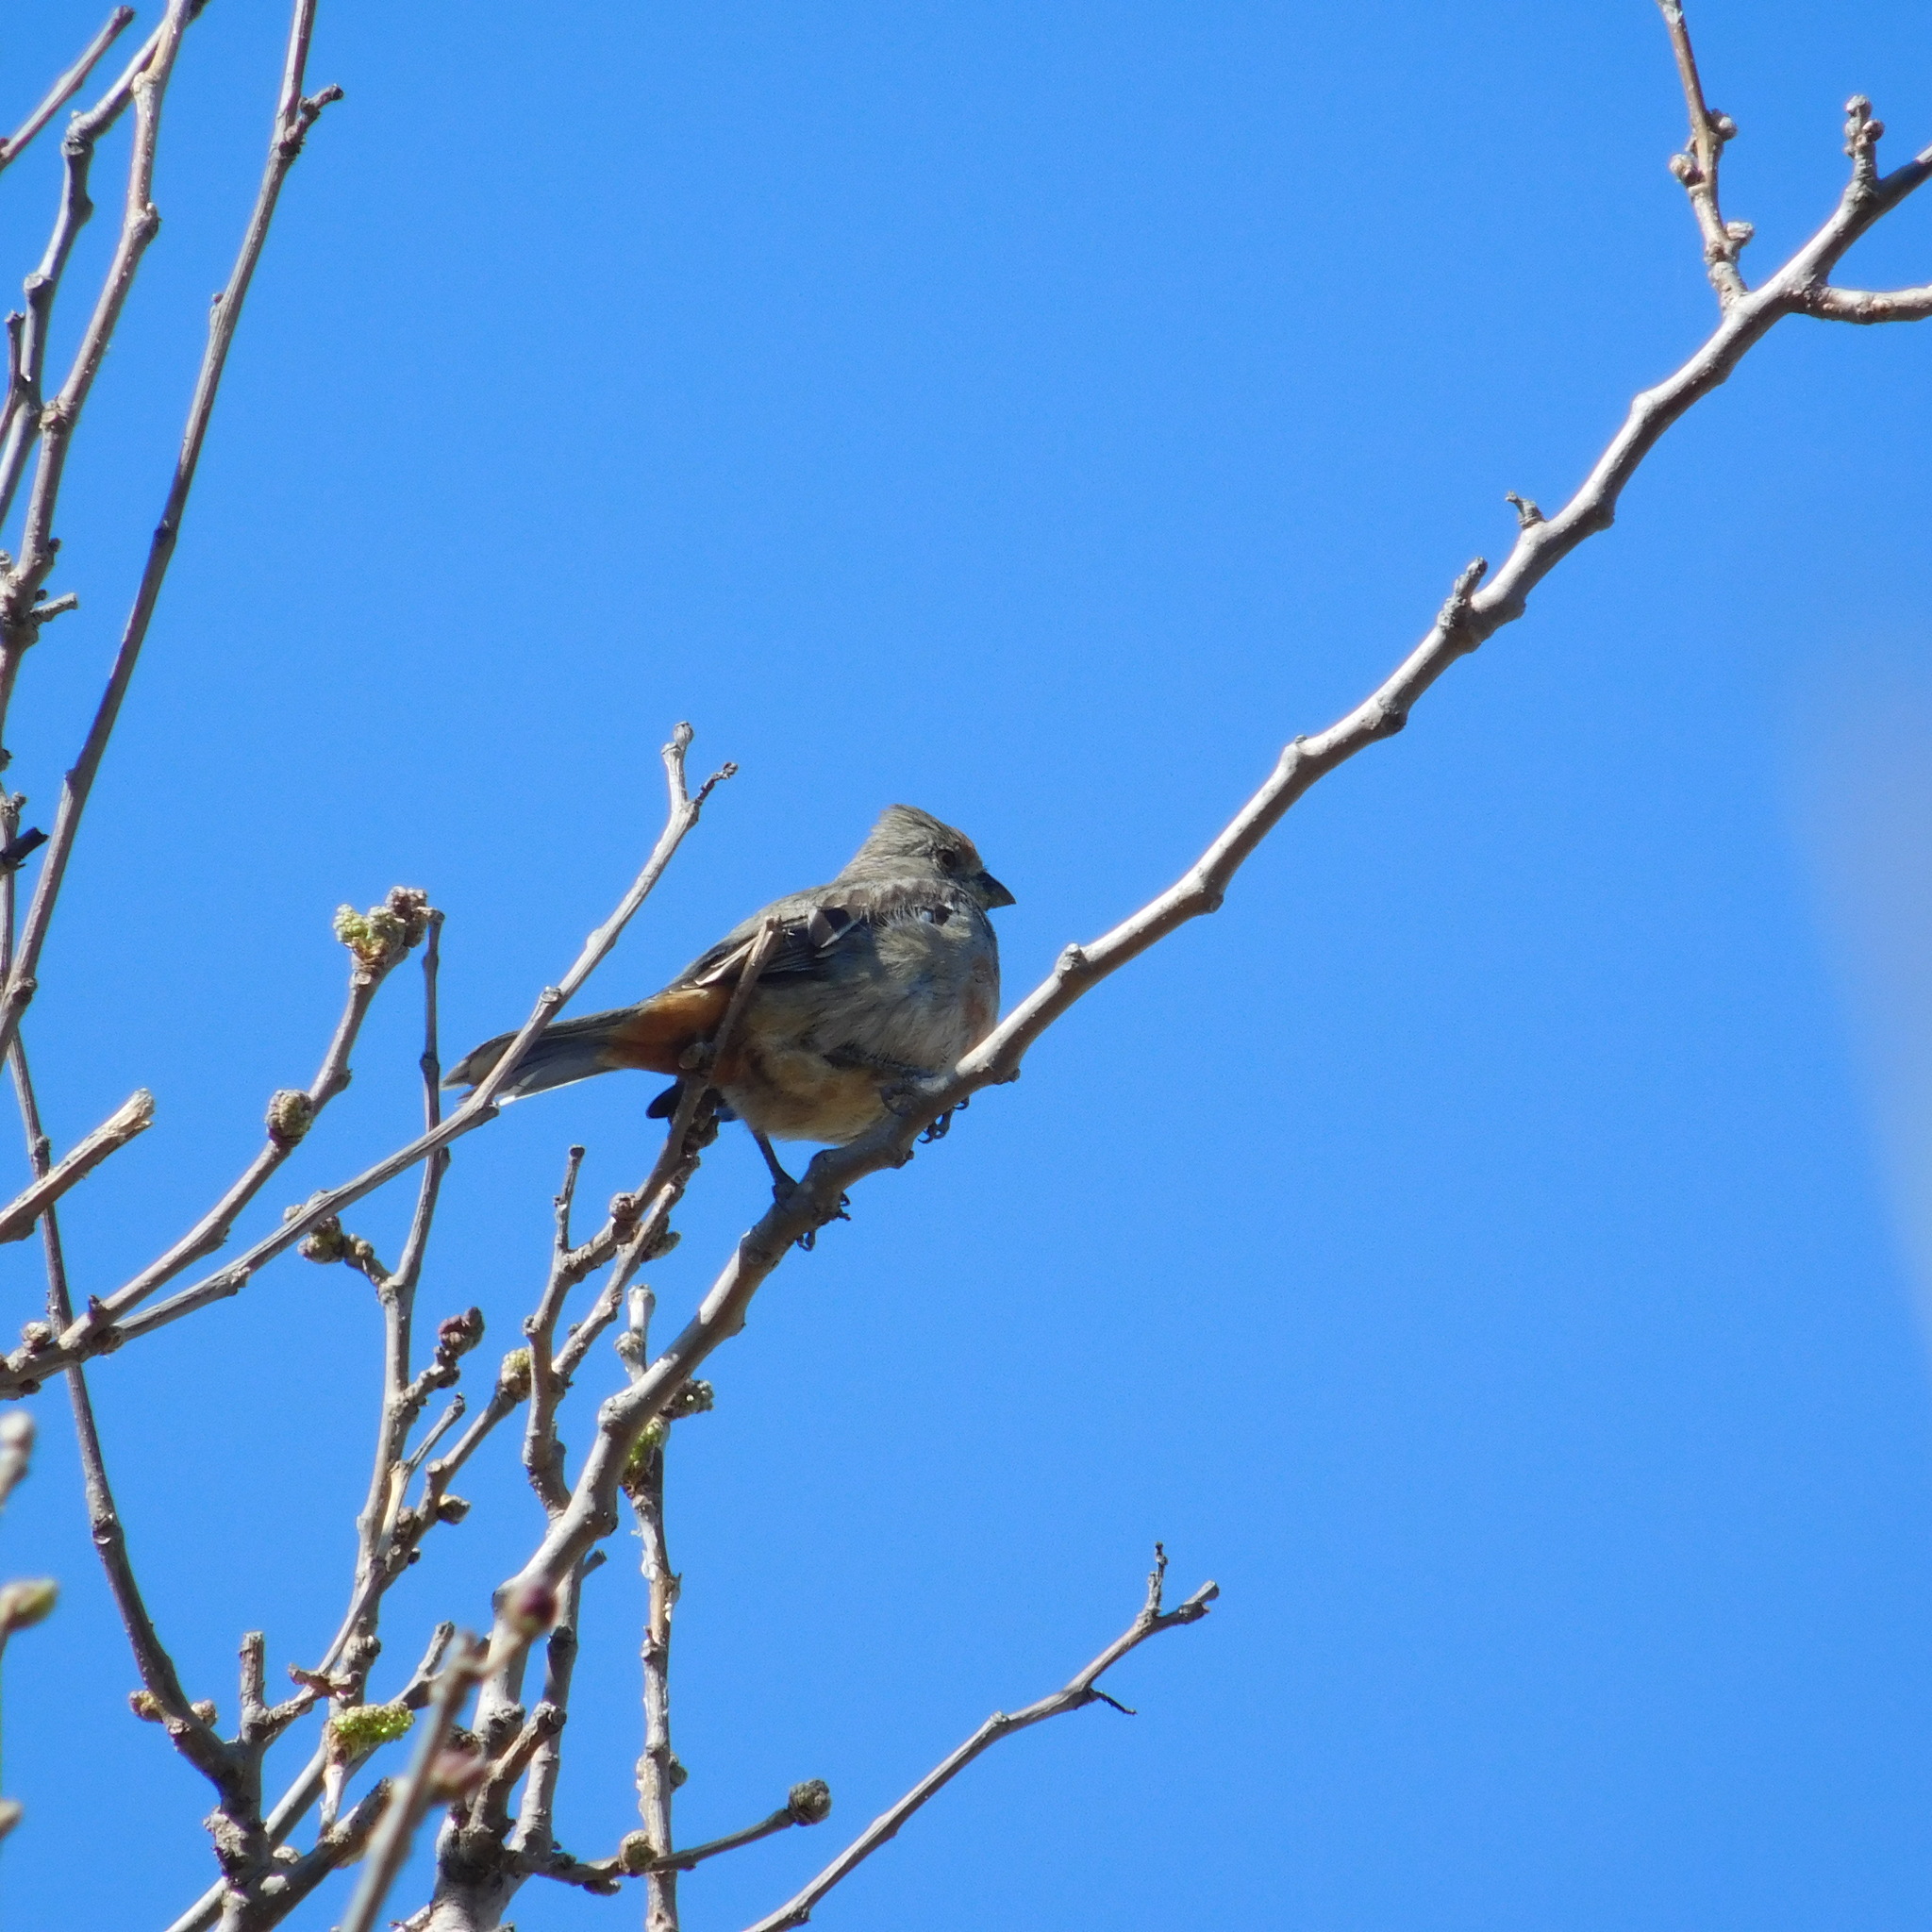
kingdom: Animalia
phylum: Chordata
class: Aves
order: Passeriformes
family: Cotingidae
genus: Phytotoma
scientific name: Phytotoma rutila
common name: White-tipped plantcutter
